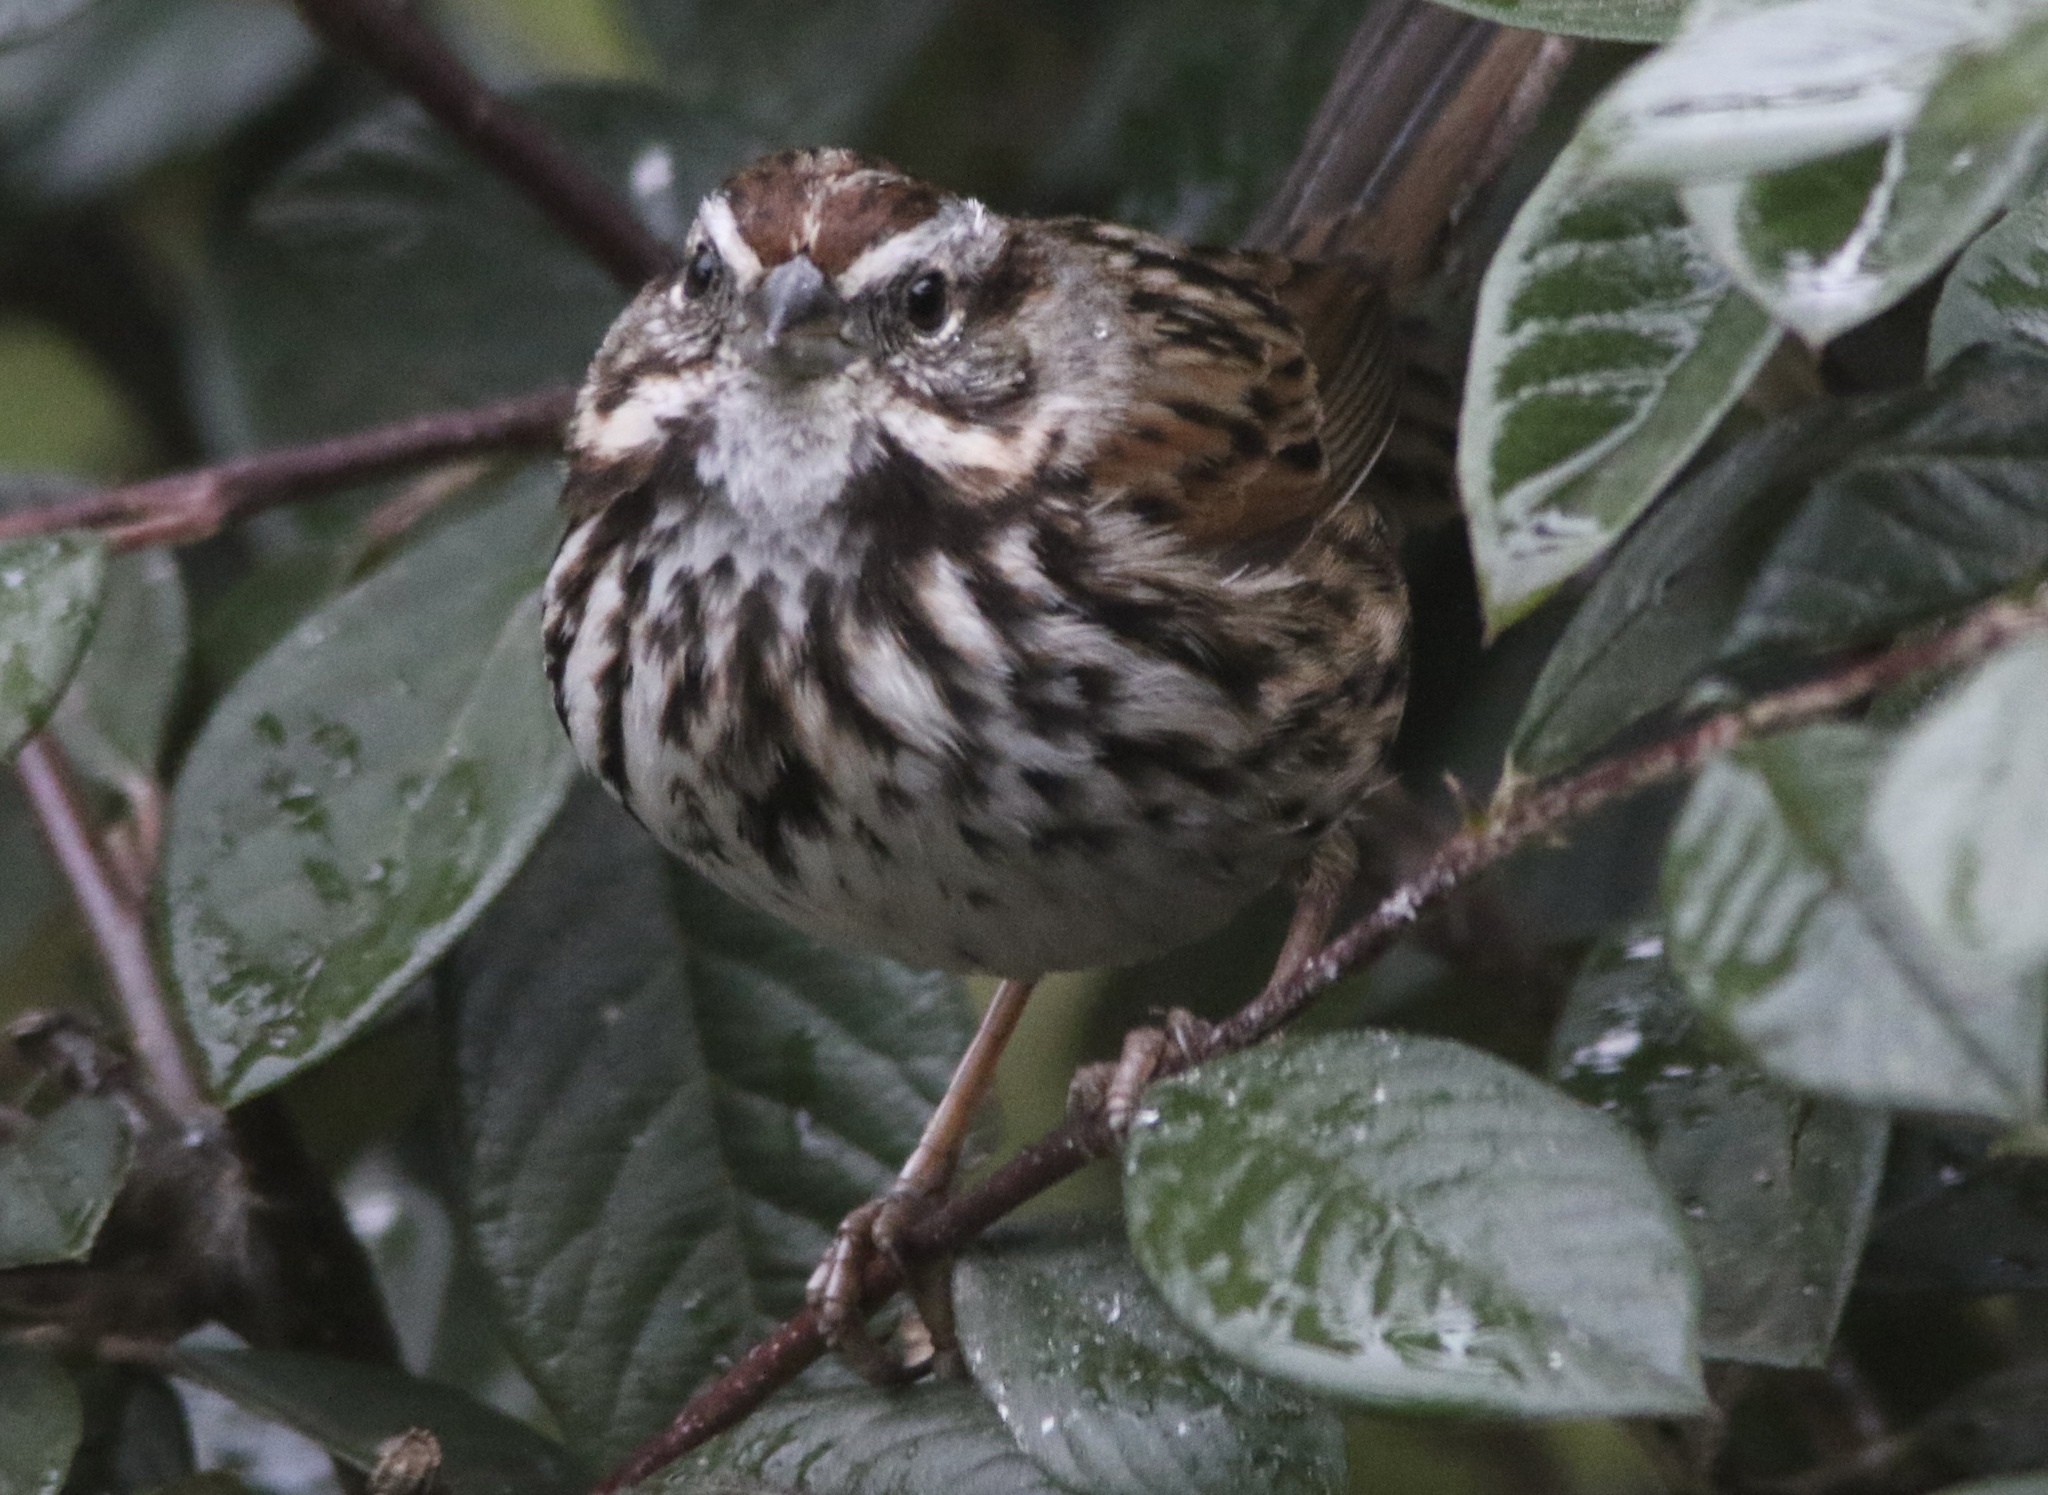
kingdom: Animalia
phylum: Chordata
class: Aves
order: Passeriformes
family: Passerellidae
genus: Melospiza
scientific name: Melospiza melodia
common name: Song sparrow
